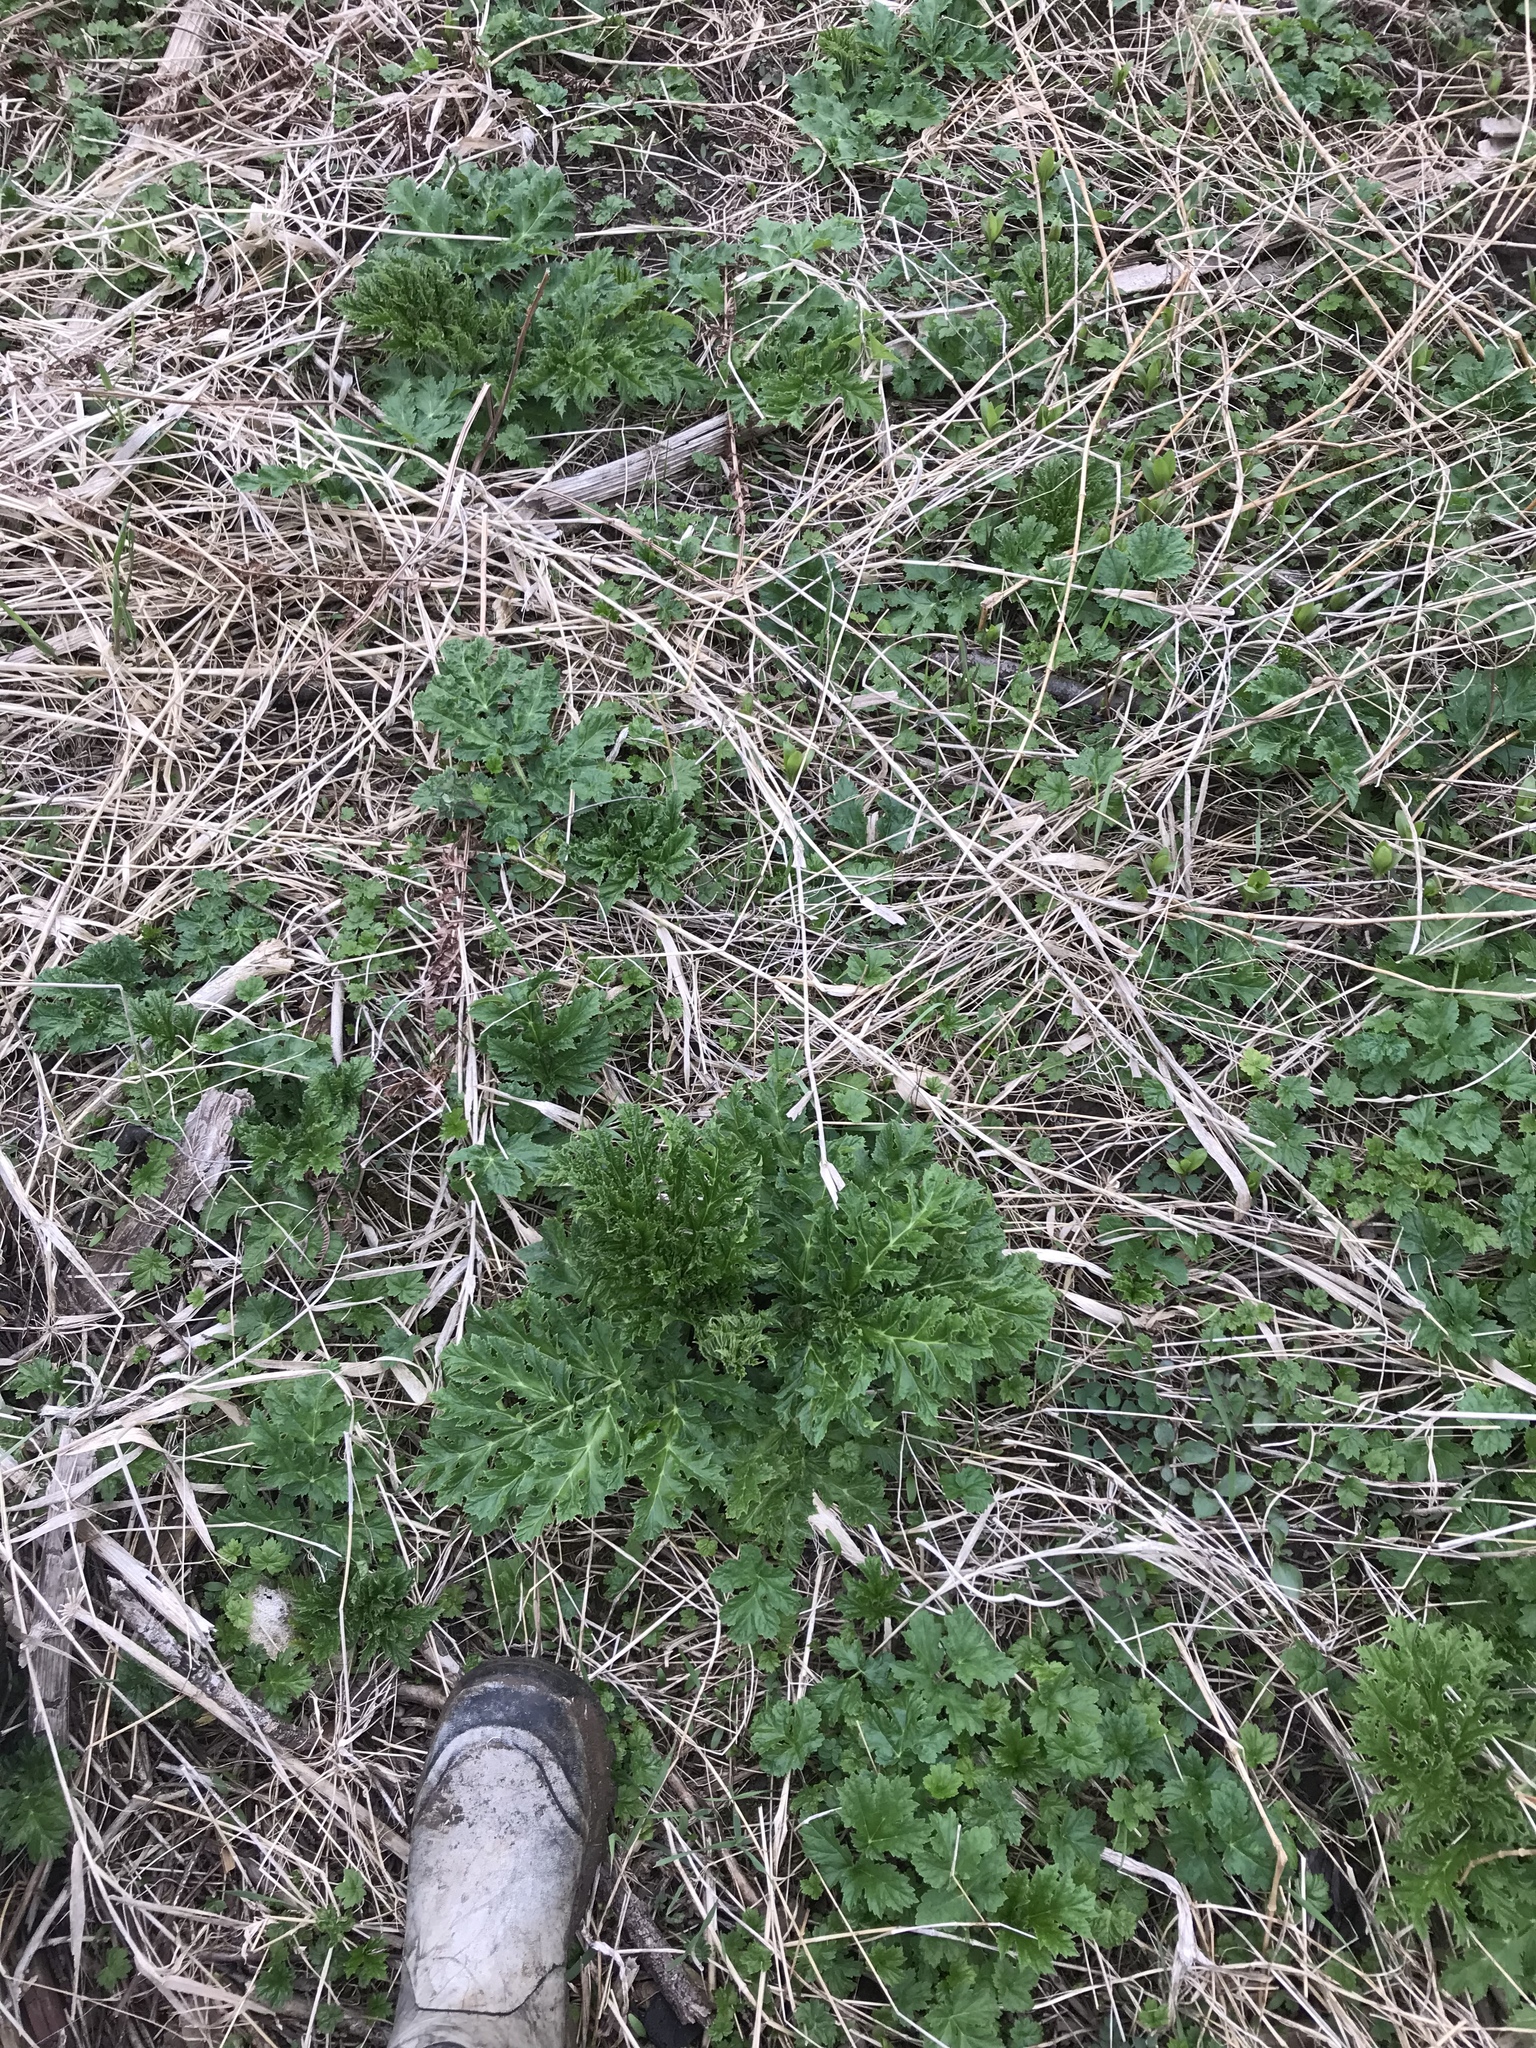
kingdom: Plantae
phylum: Tracheophyta
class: Magnoliopsida
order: Apiales
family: Apiaceae
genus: Heracleum
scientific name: Heracleum mantegazzianum
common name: Giant hogweed
